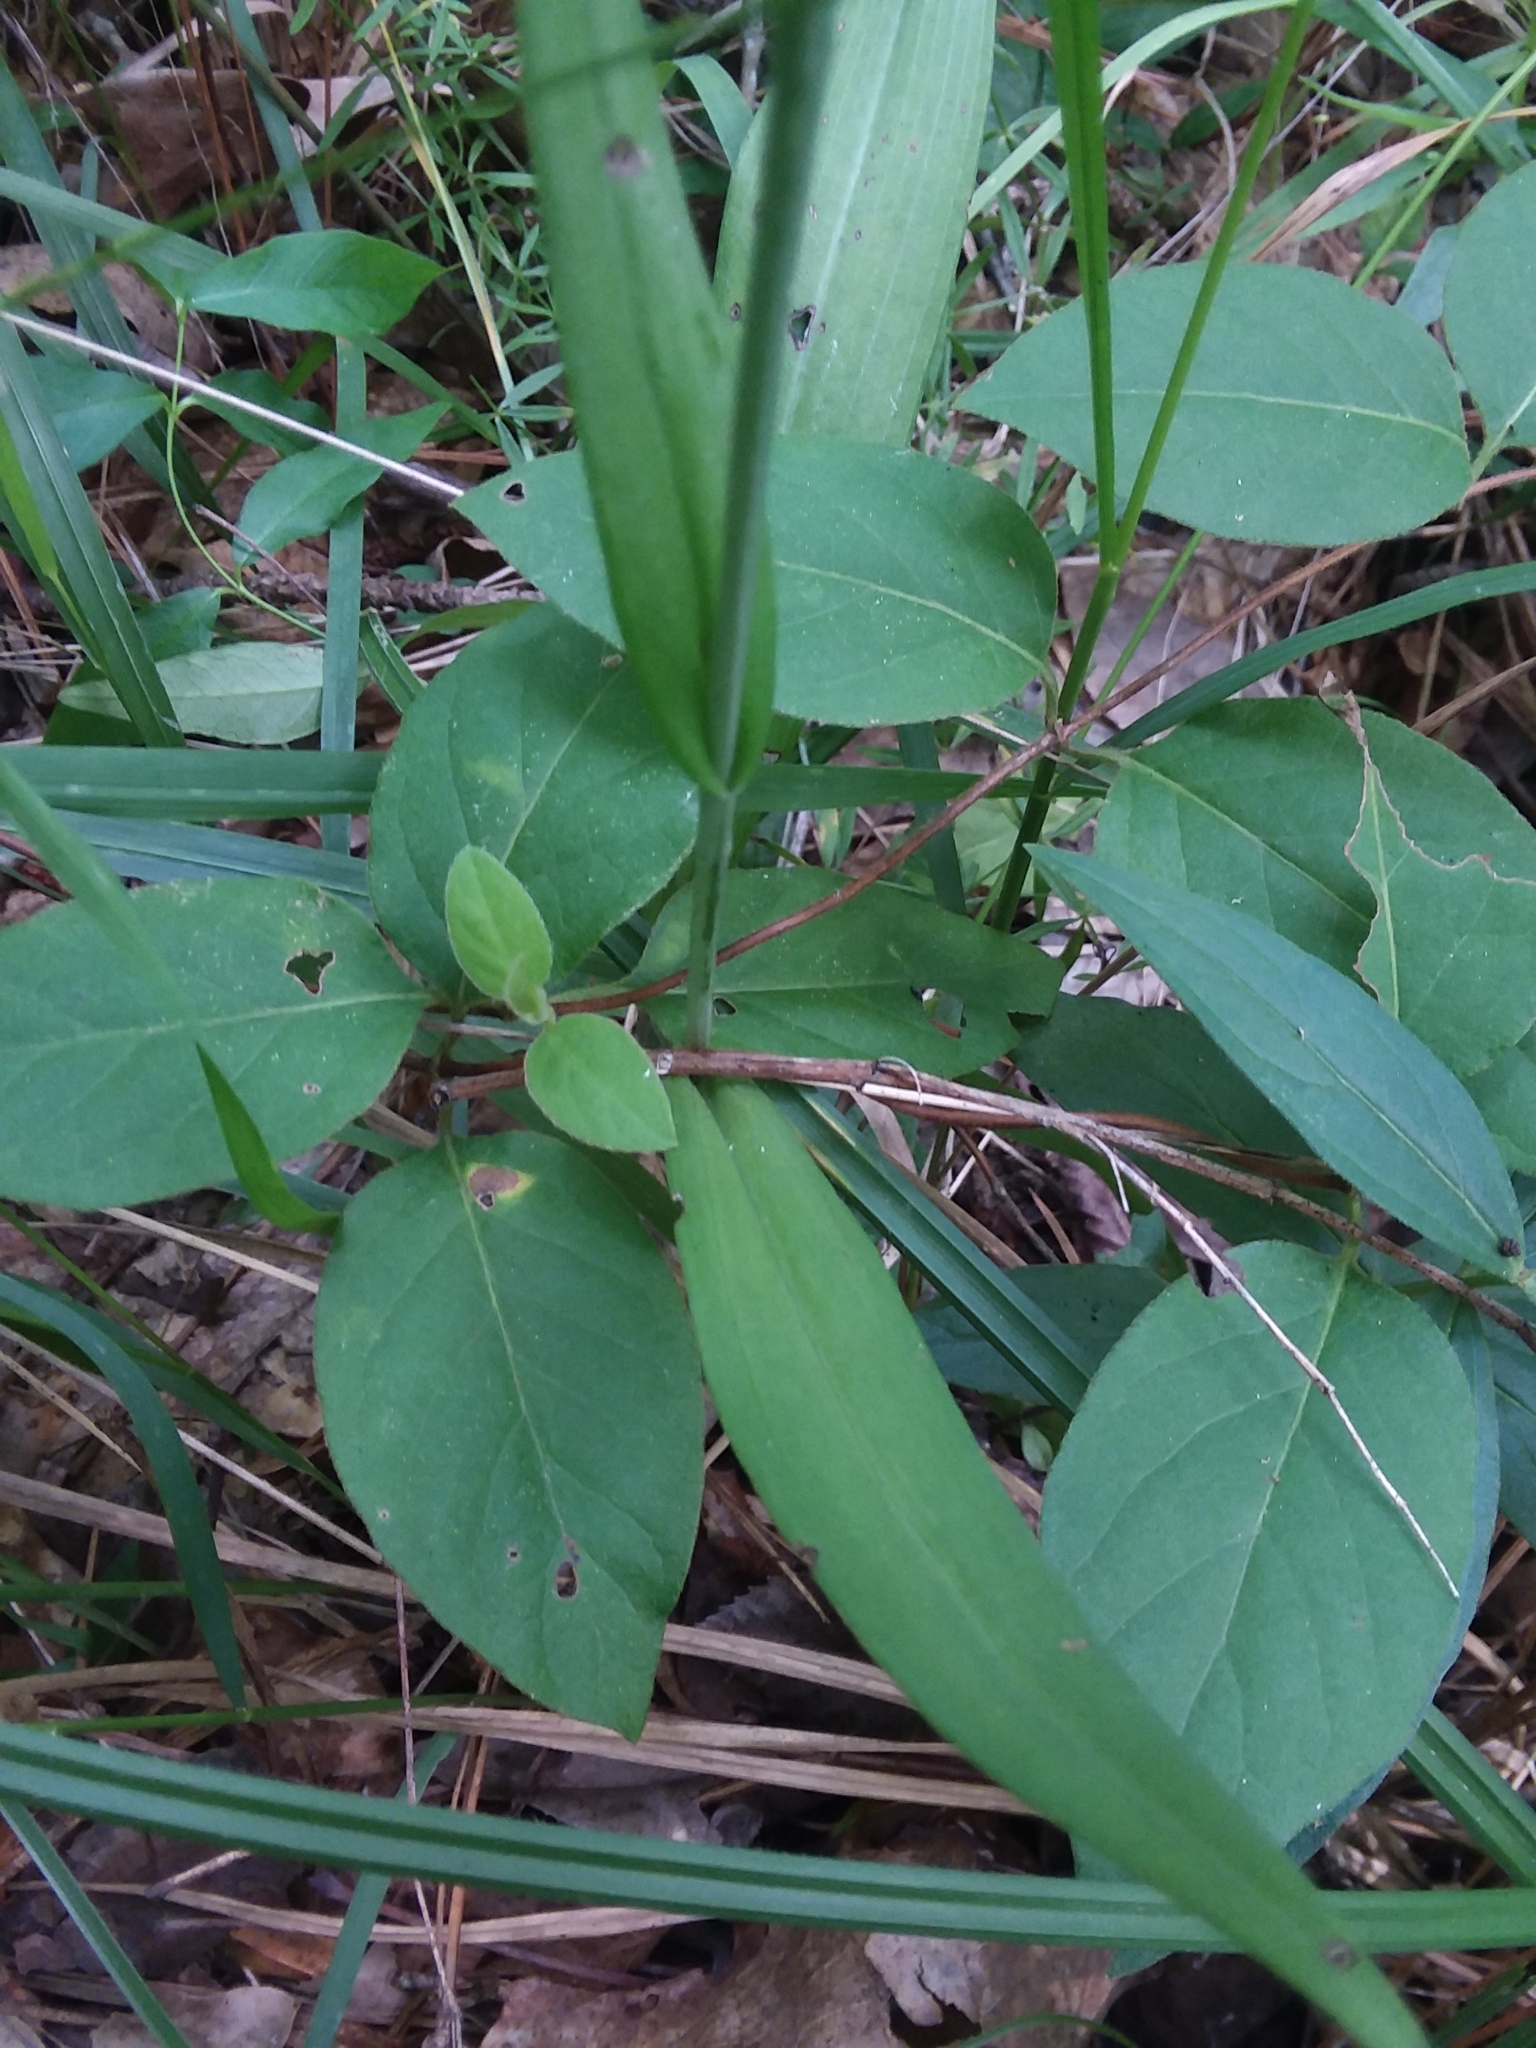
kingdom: Plantae
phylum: Tracheophyta
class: Liliopsida
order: Asparagales
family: Orchidaceae
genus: Platanthera
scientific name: Platanthera peramoena
